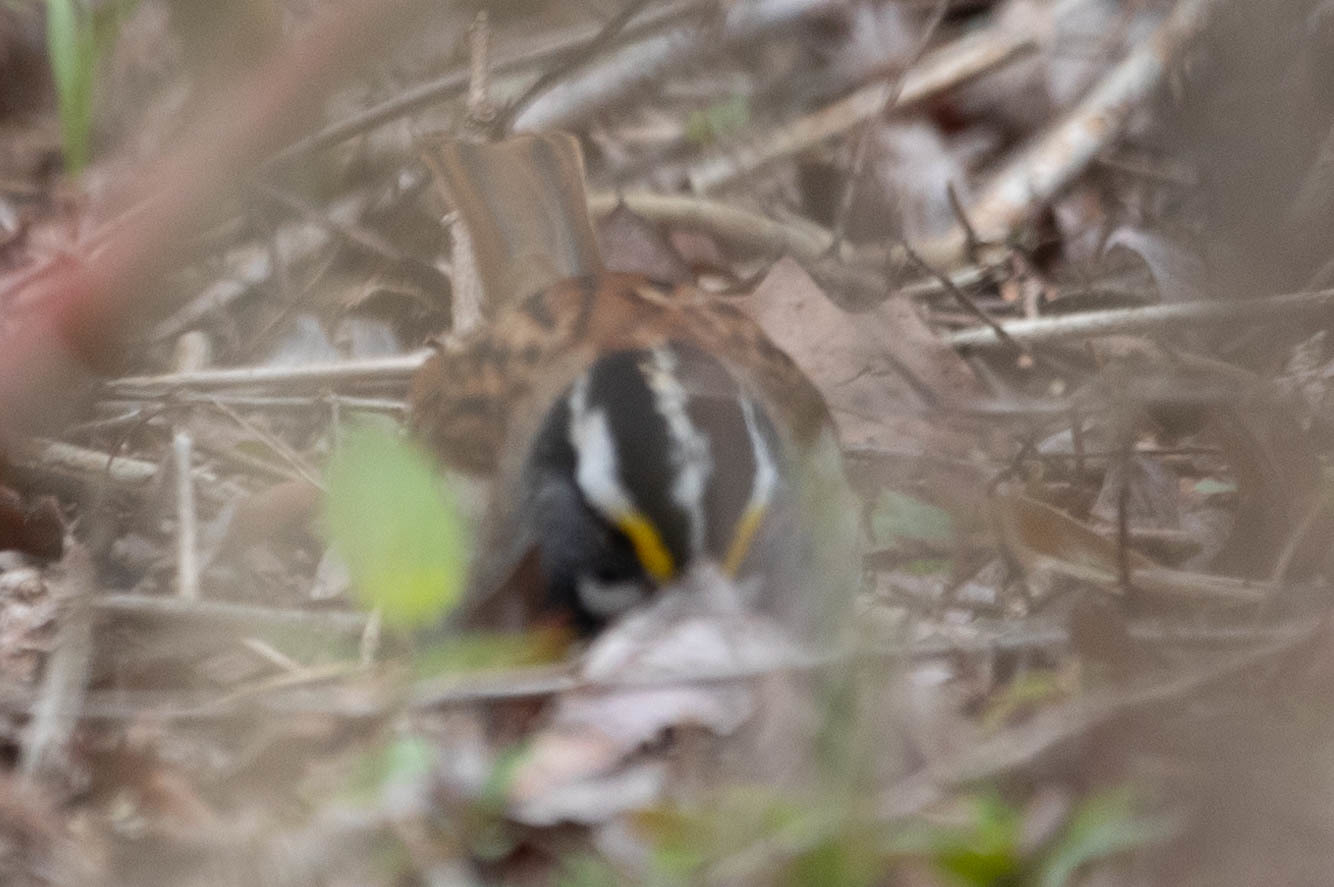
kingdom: Animalia
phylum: Chordata
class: Aves
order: Passeriformes
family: Passerellidae
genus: Zonotrichia
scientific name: Zonotrichia albicollis
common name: White-throated sparrow
